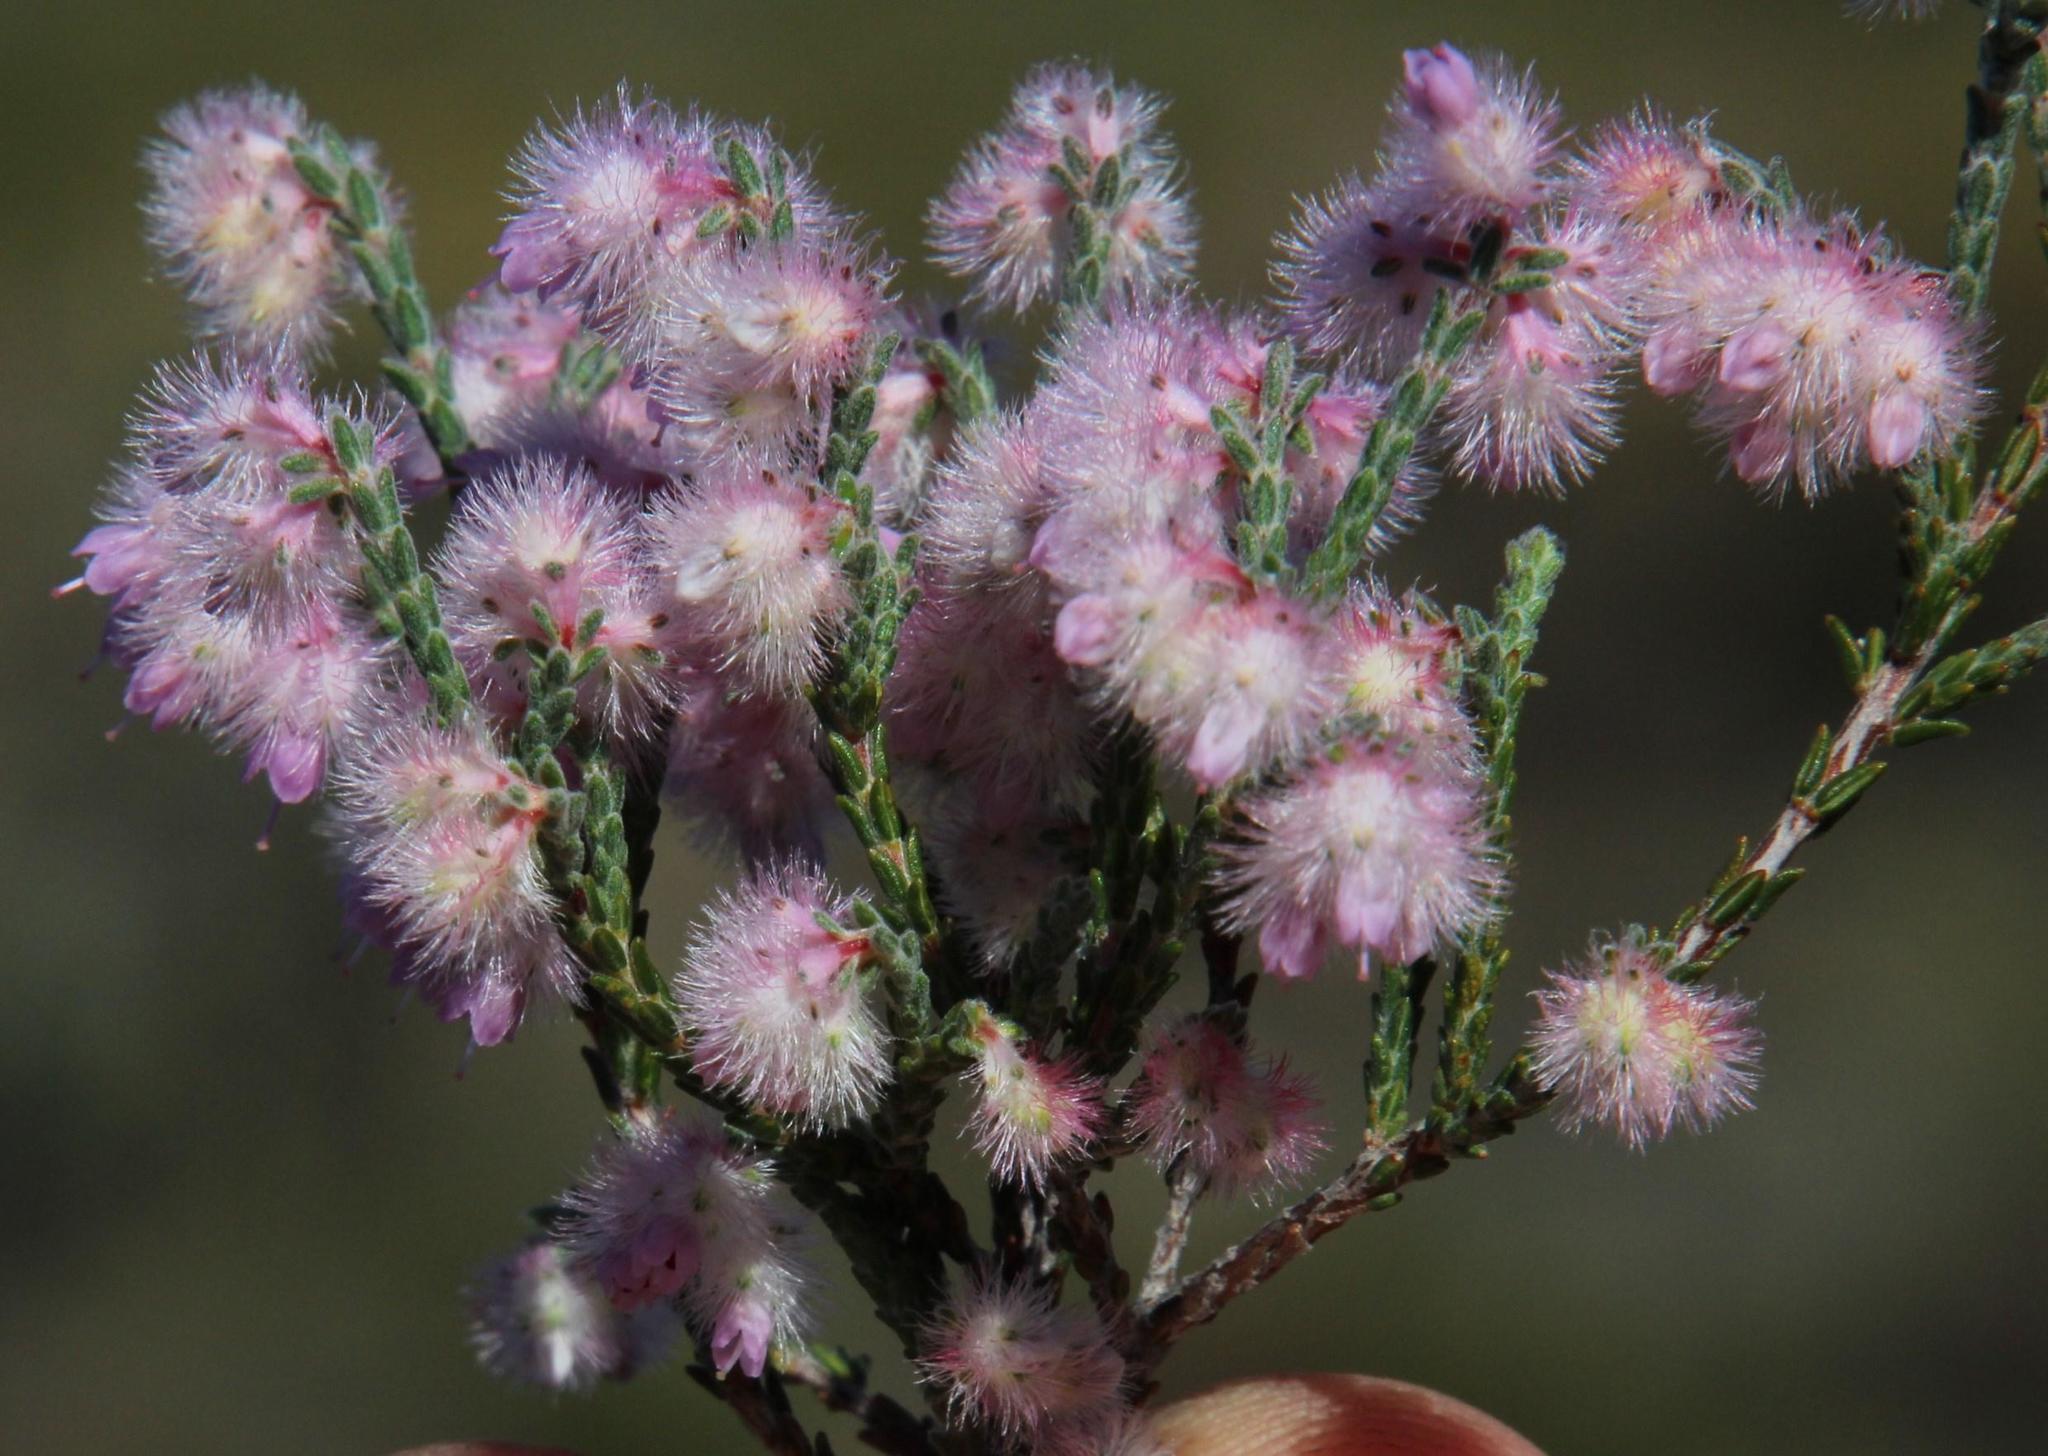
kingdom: Plantae
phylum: Tracheophyta
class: Magnoliopsida
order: Ericales
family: Ericaceae
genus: Erica
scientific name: Erica plumosa
